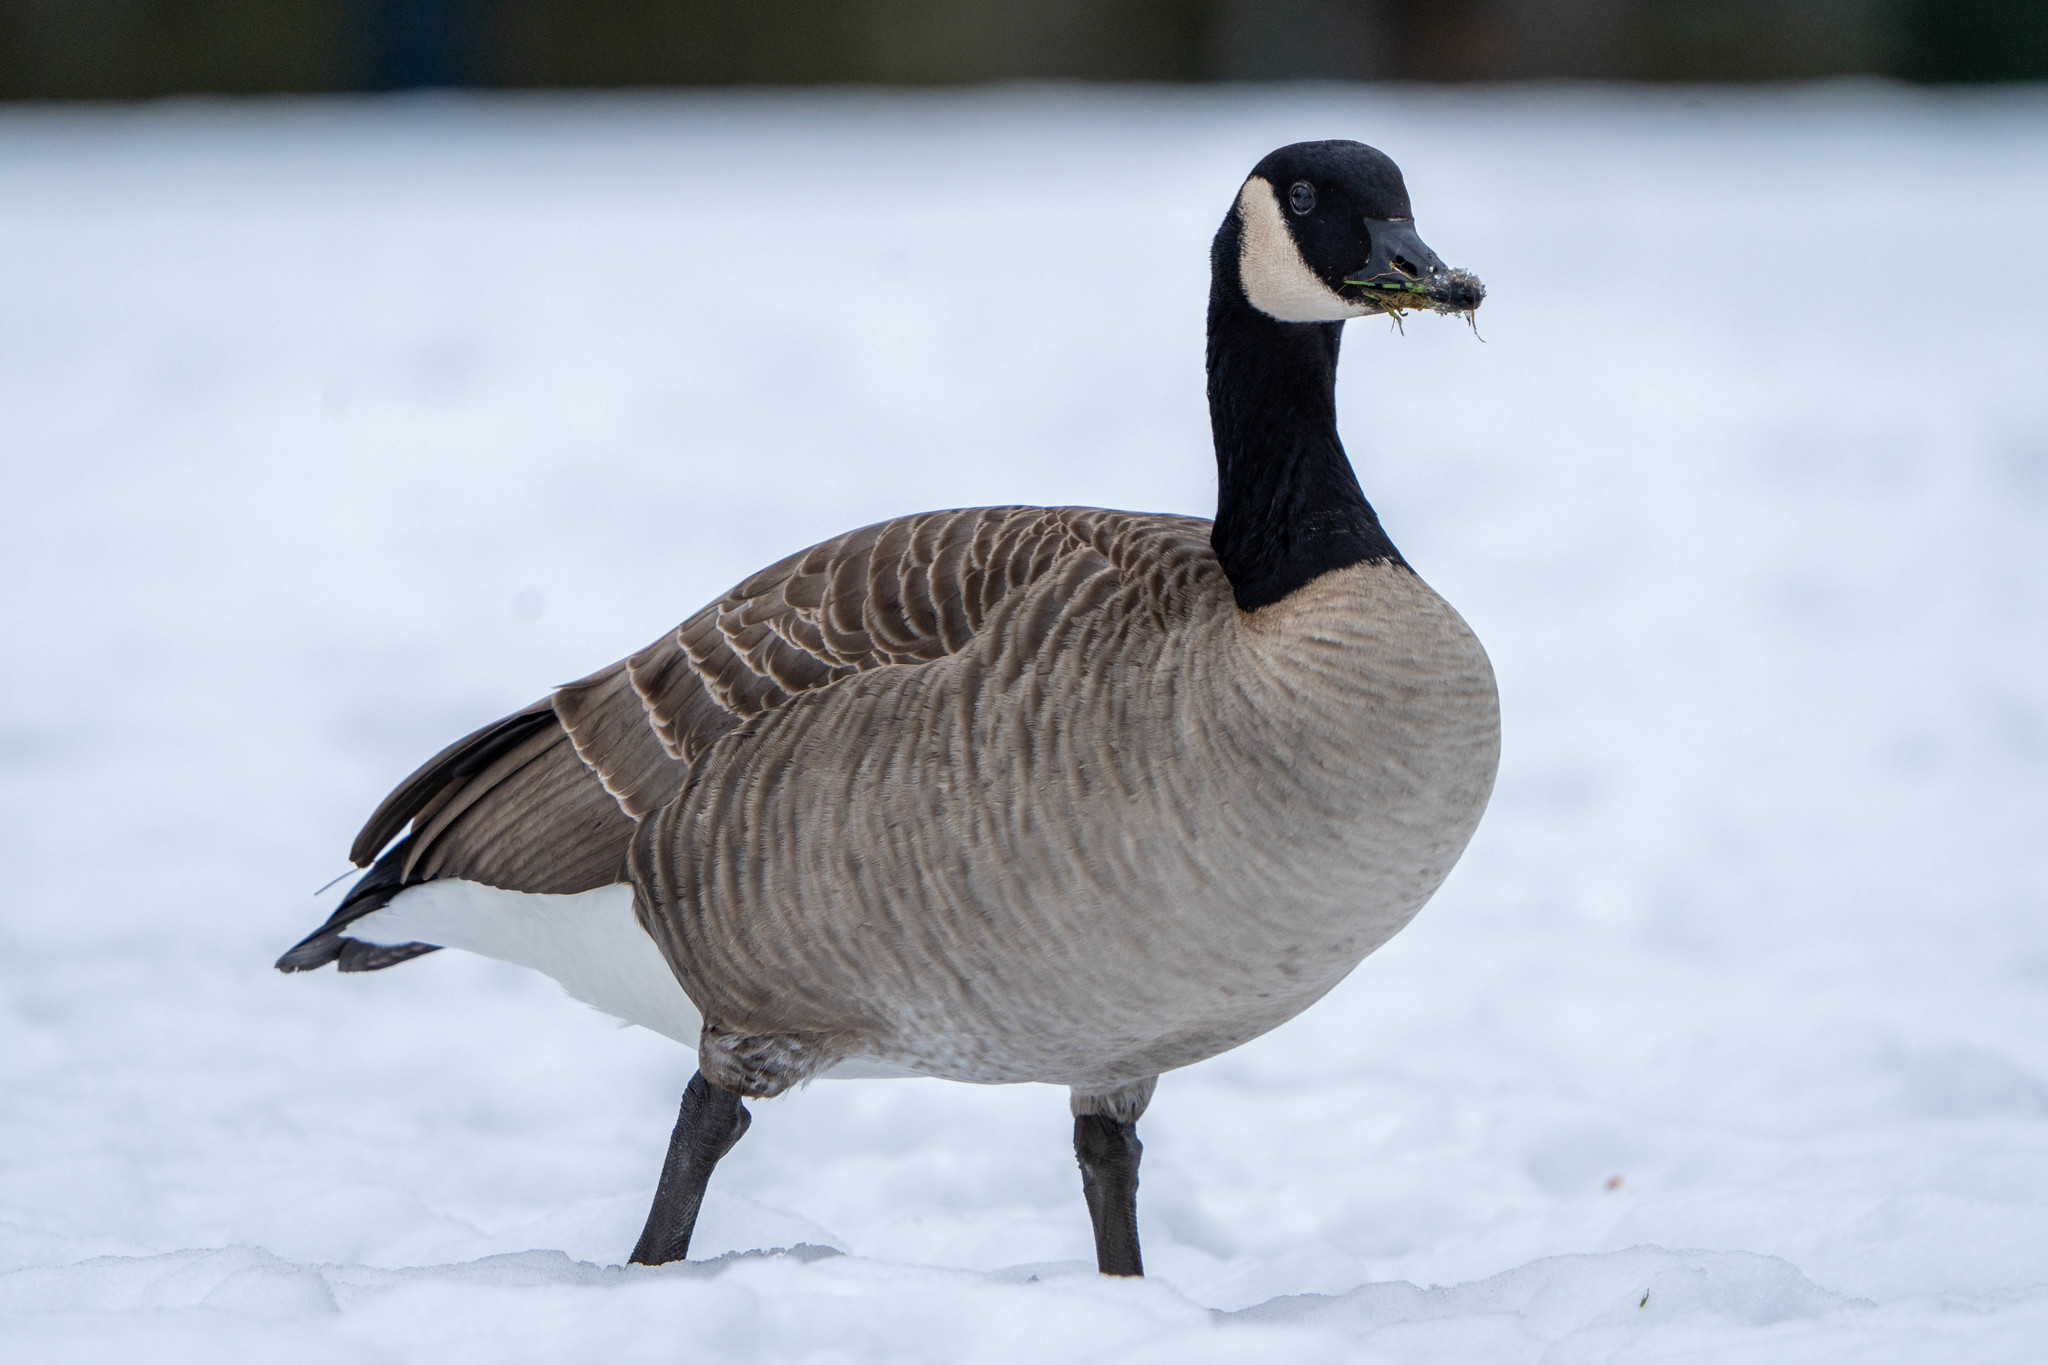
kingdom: Animalia
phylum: Chordata
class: Aves
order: Anseriformes
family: Anatidae
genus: Branta
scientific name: Branta canadensis
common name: Canada goose
